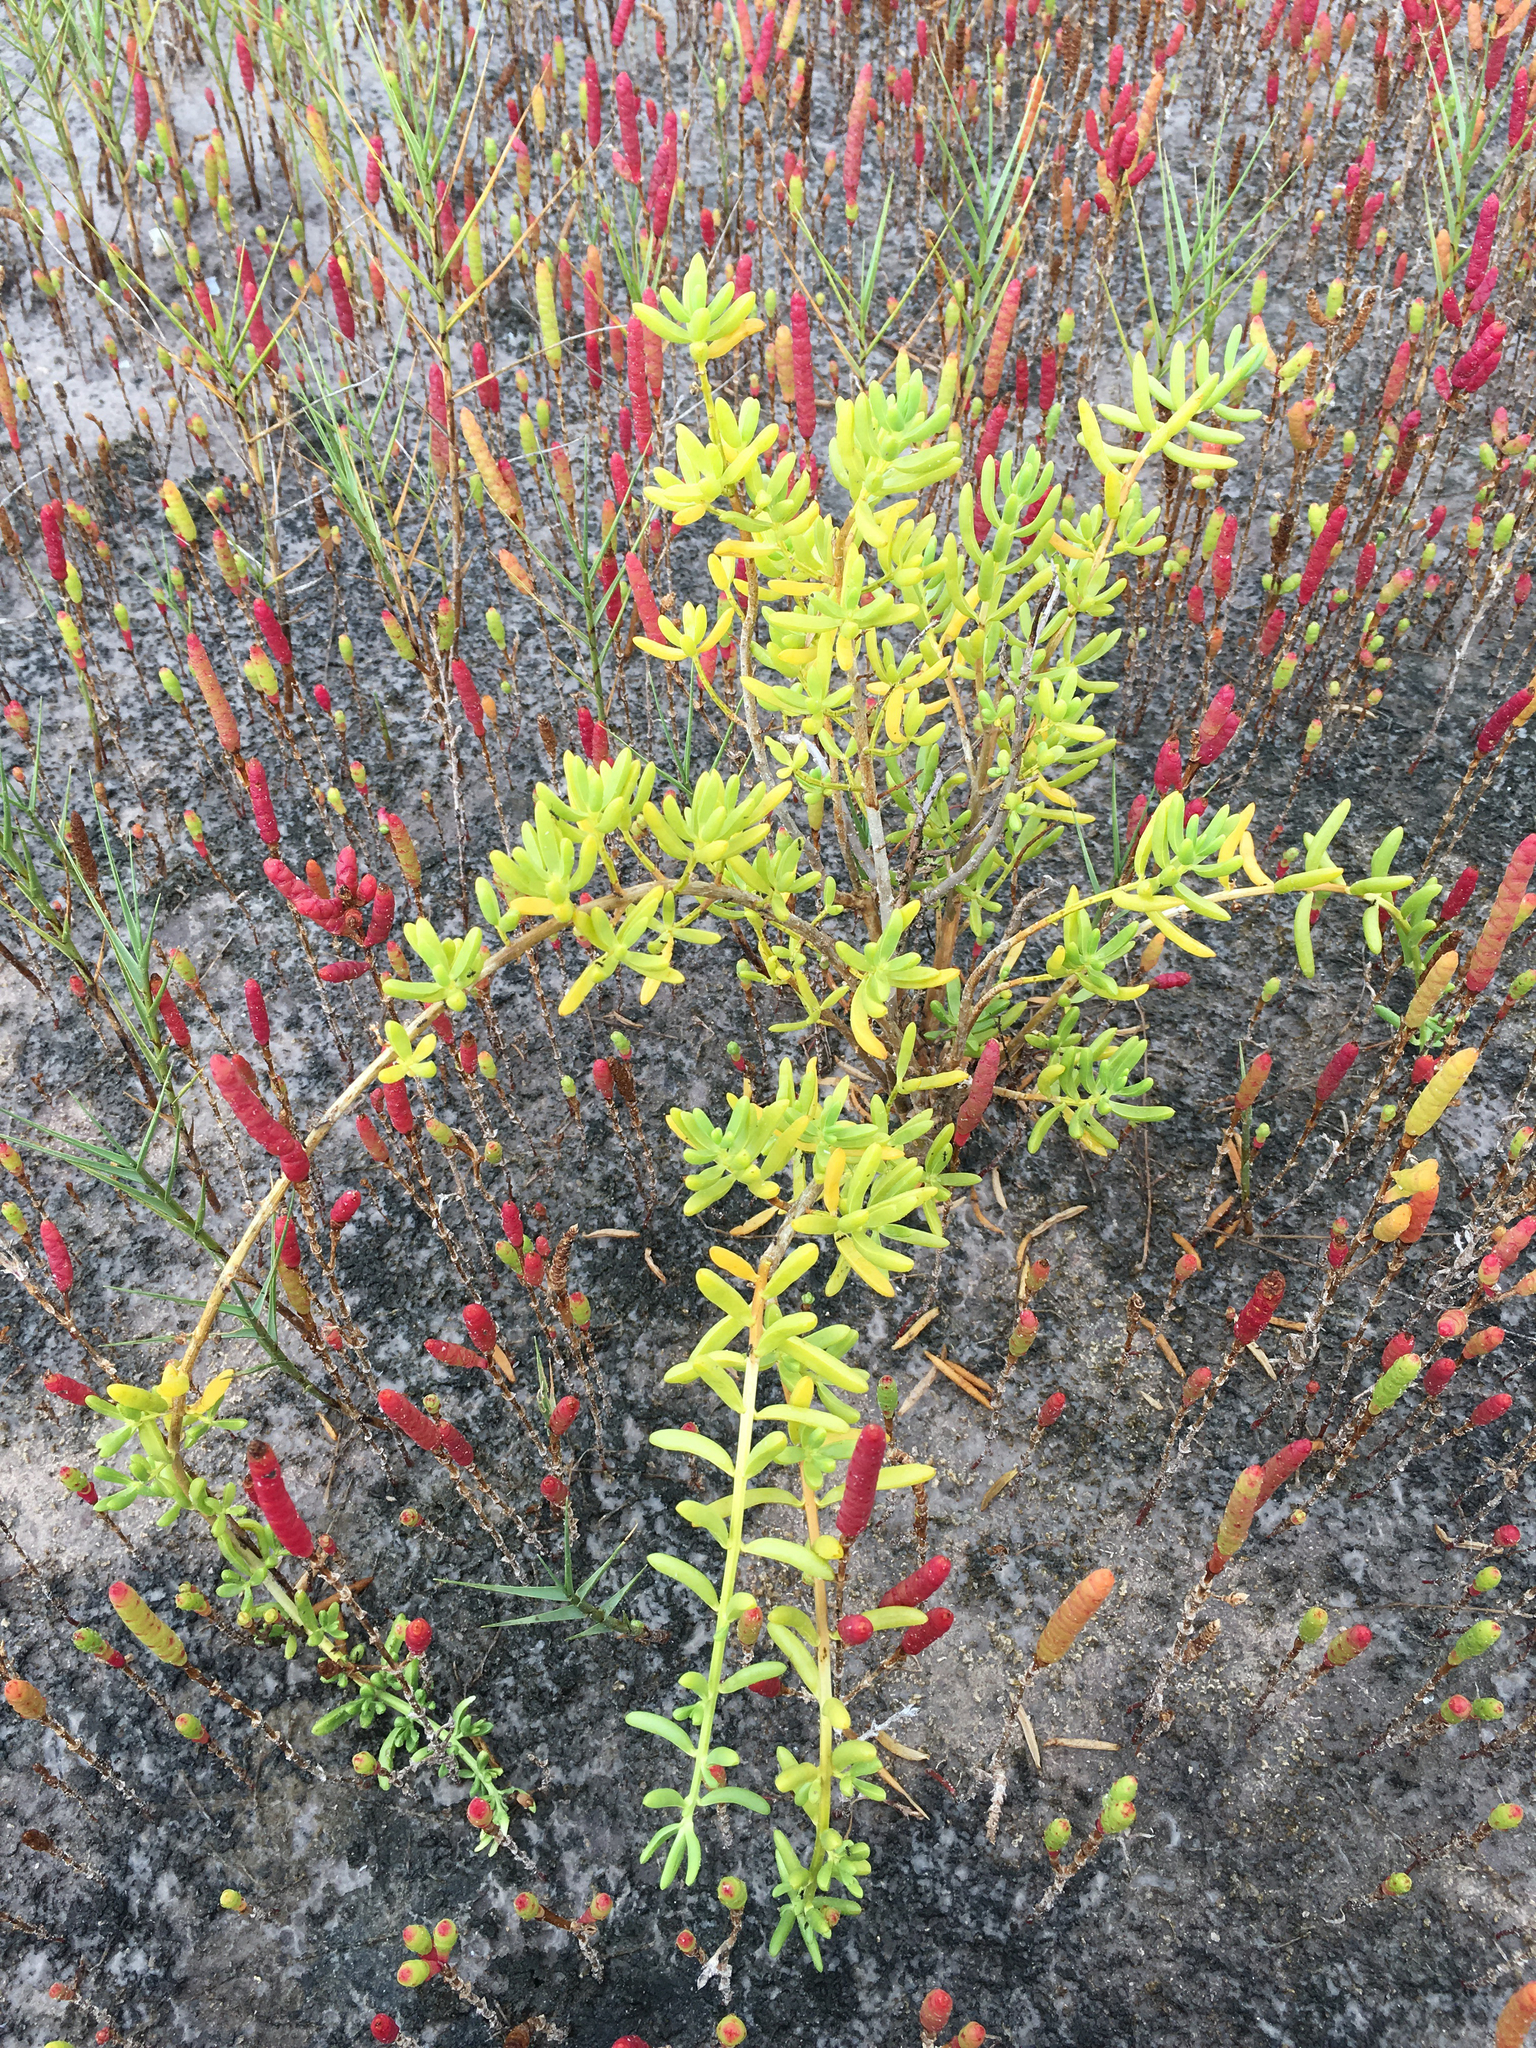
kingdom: Plantae
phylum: Tracheophyta
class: Magnoliopsida
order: Brassicales
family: Bataceae
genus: Batis
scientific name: Batis maritima
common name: Turtleweed
